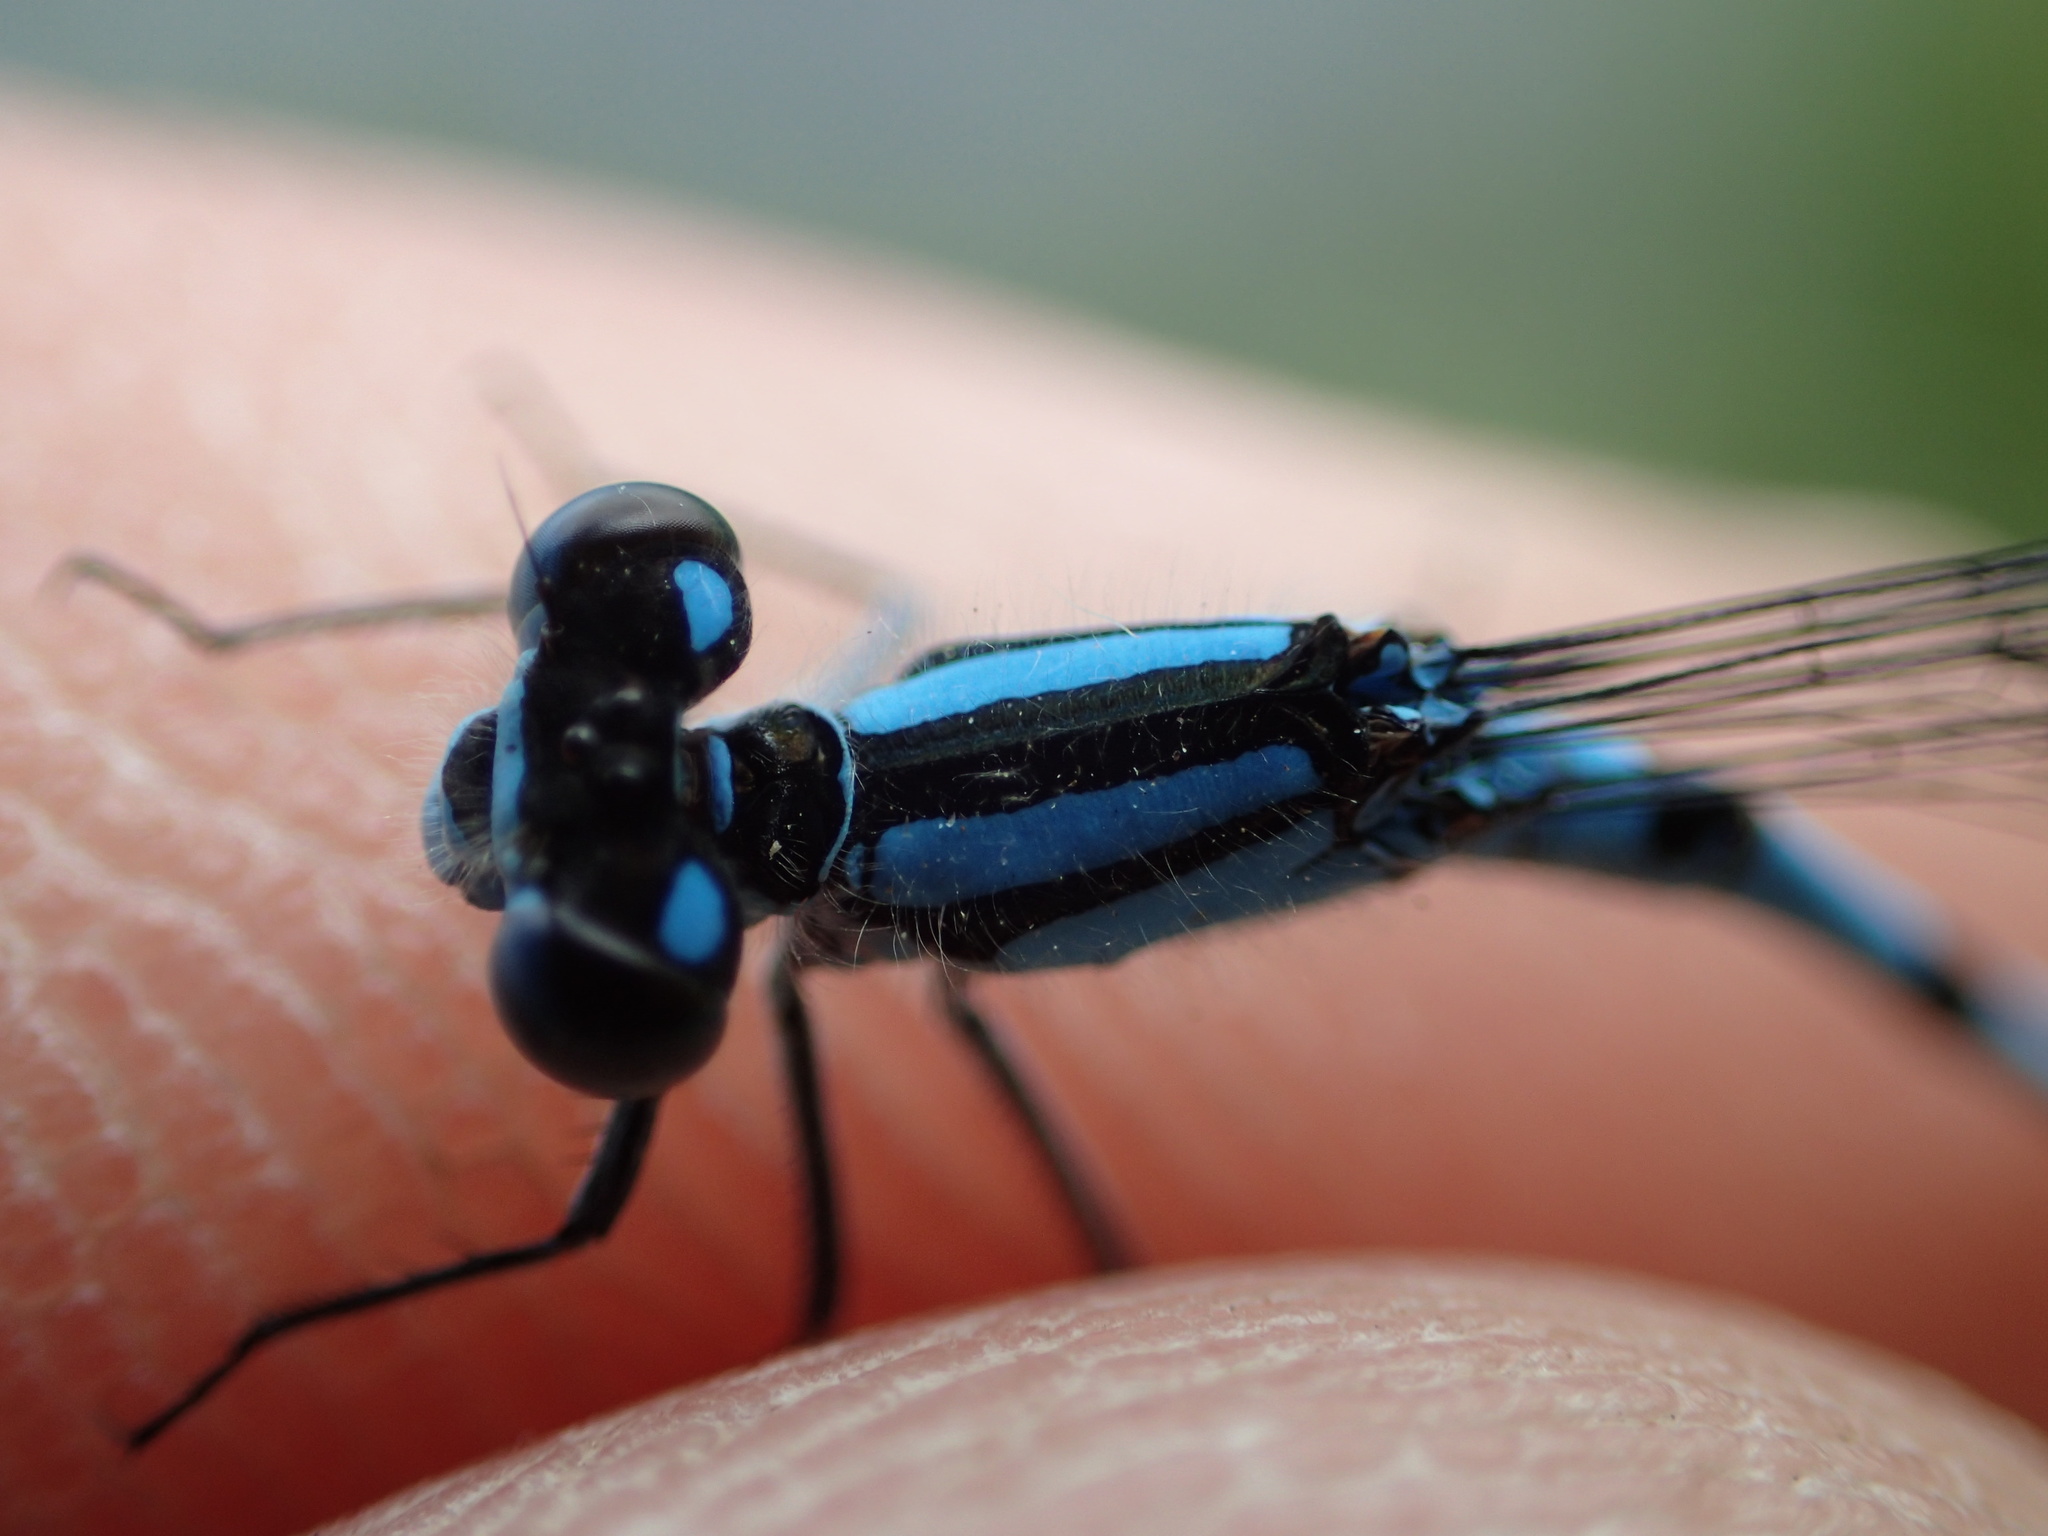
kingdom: Animalia
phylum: Arthropoda
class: Insecta
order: Odonata
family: Coenagrionidae
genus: Enallagma
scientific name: Enallagma hageni
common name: Hagen's bluet
